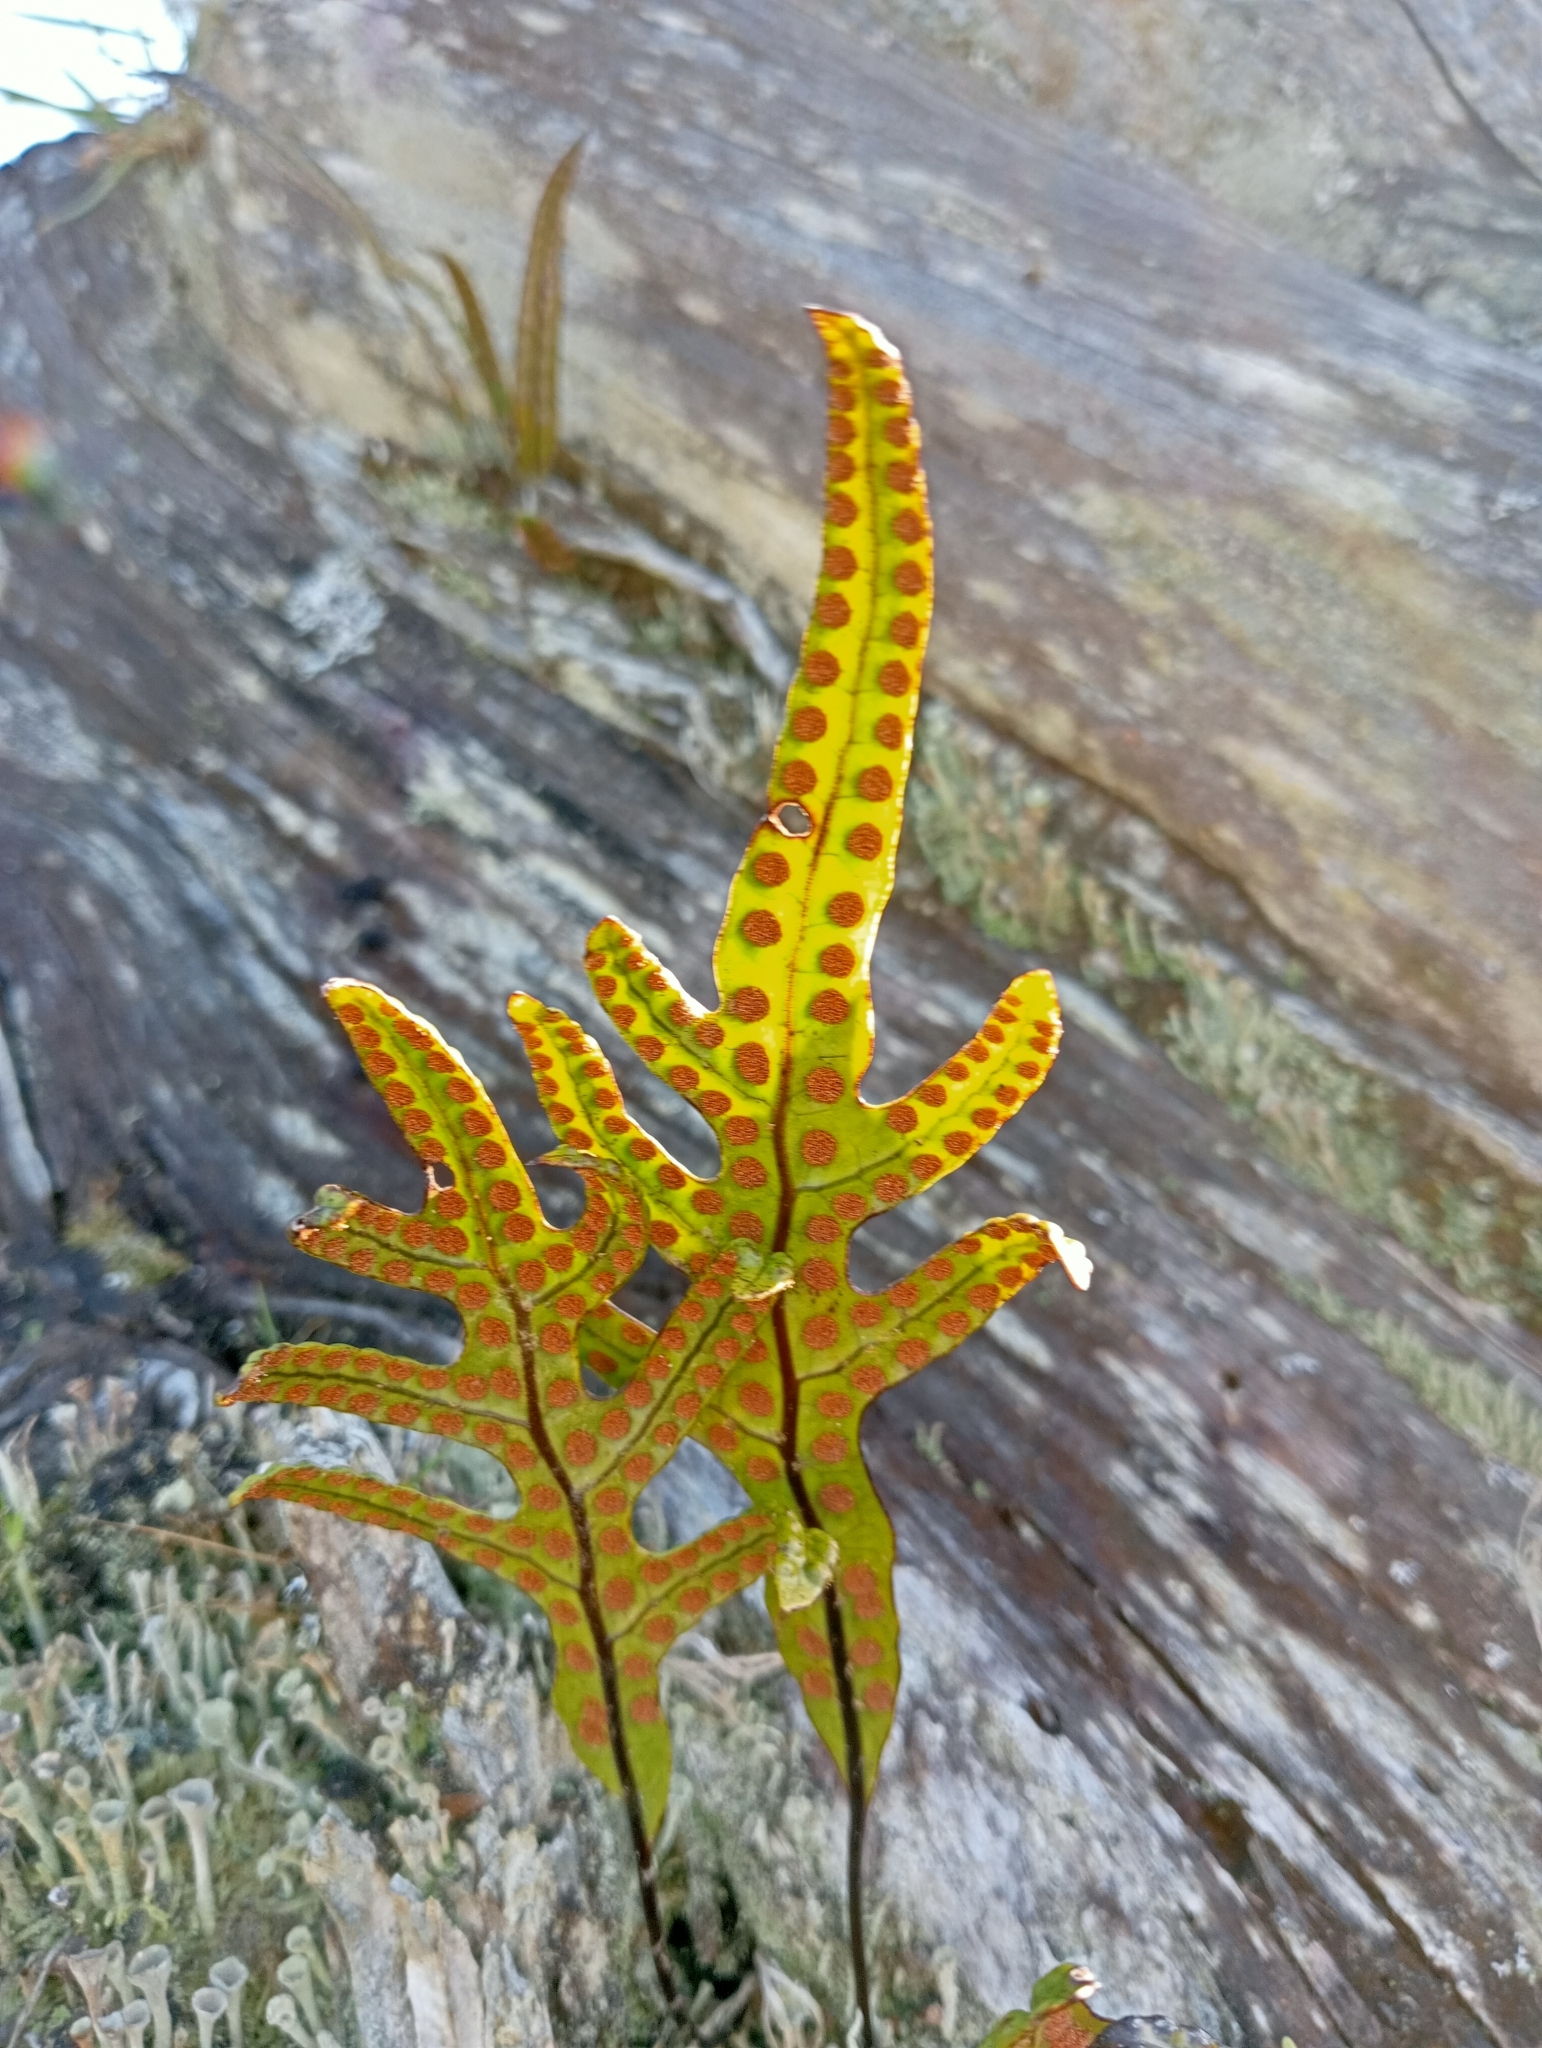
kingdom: Plantae
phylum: Tracheophyta
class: Polypodiopsida
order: Polypodiales
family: Polypodiaceae
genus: Lecanopteris
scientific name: Lecanopteris pustulata
